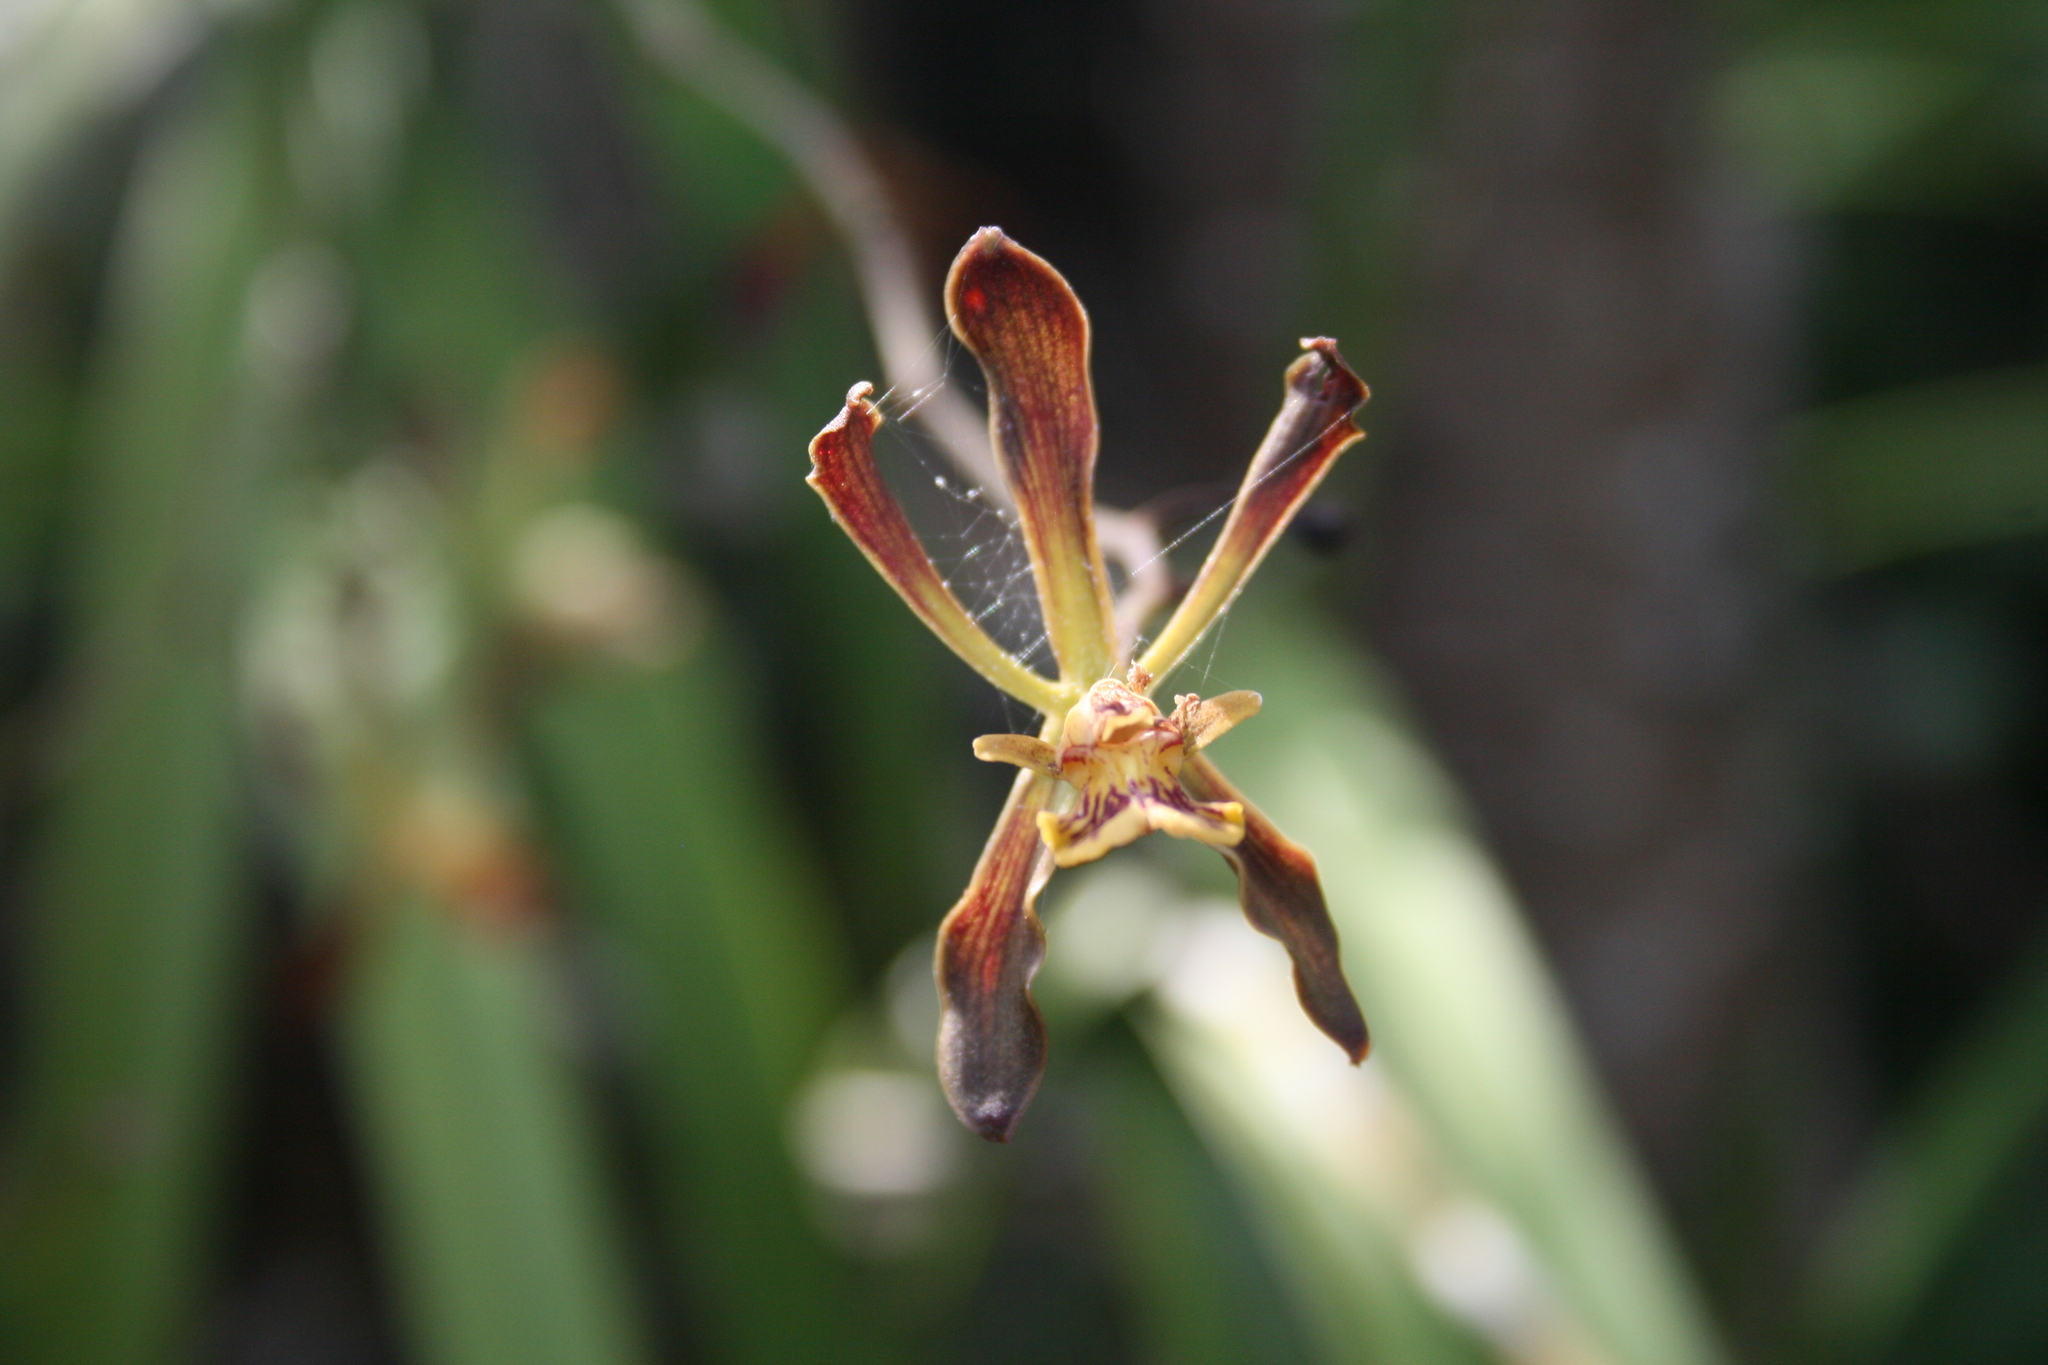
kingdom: Plantae
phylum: Tracheophyta
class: Liliopsida
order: Asparagales
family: Orchidaceae
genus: Encyclia
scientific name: Encyclia nizandensis
